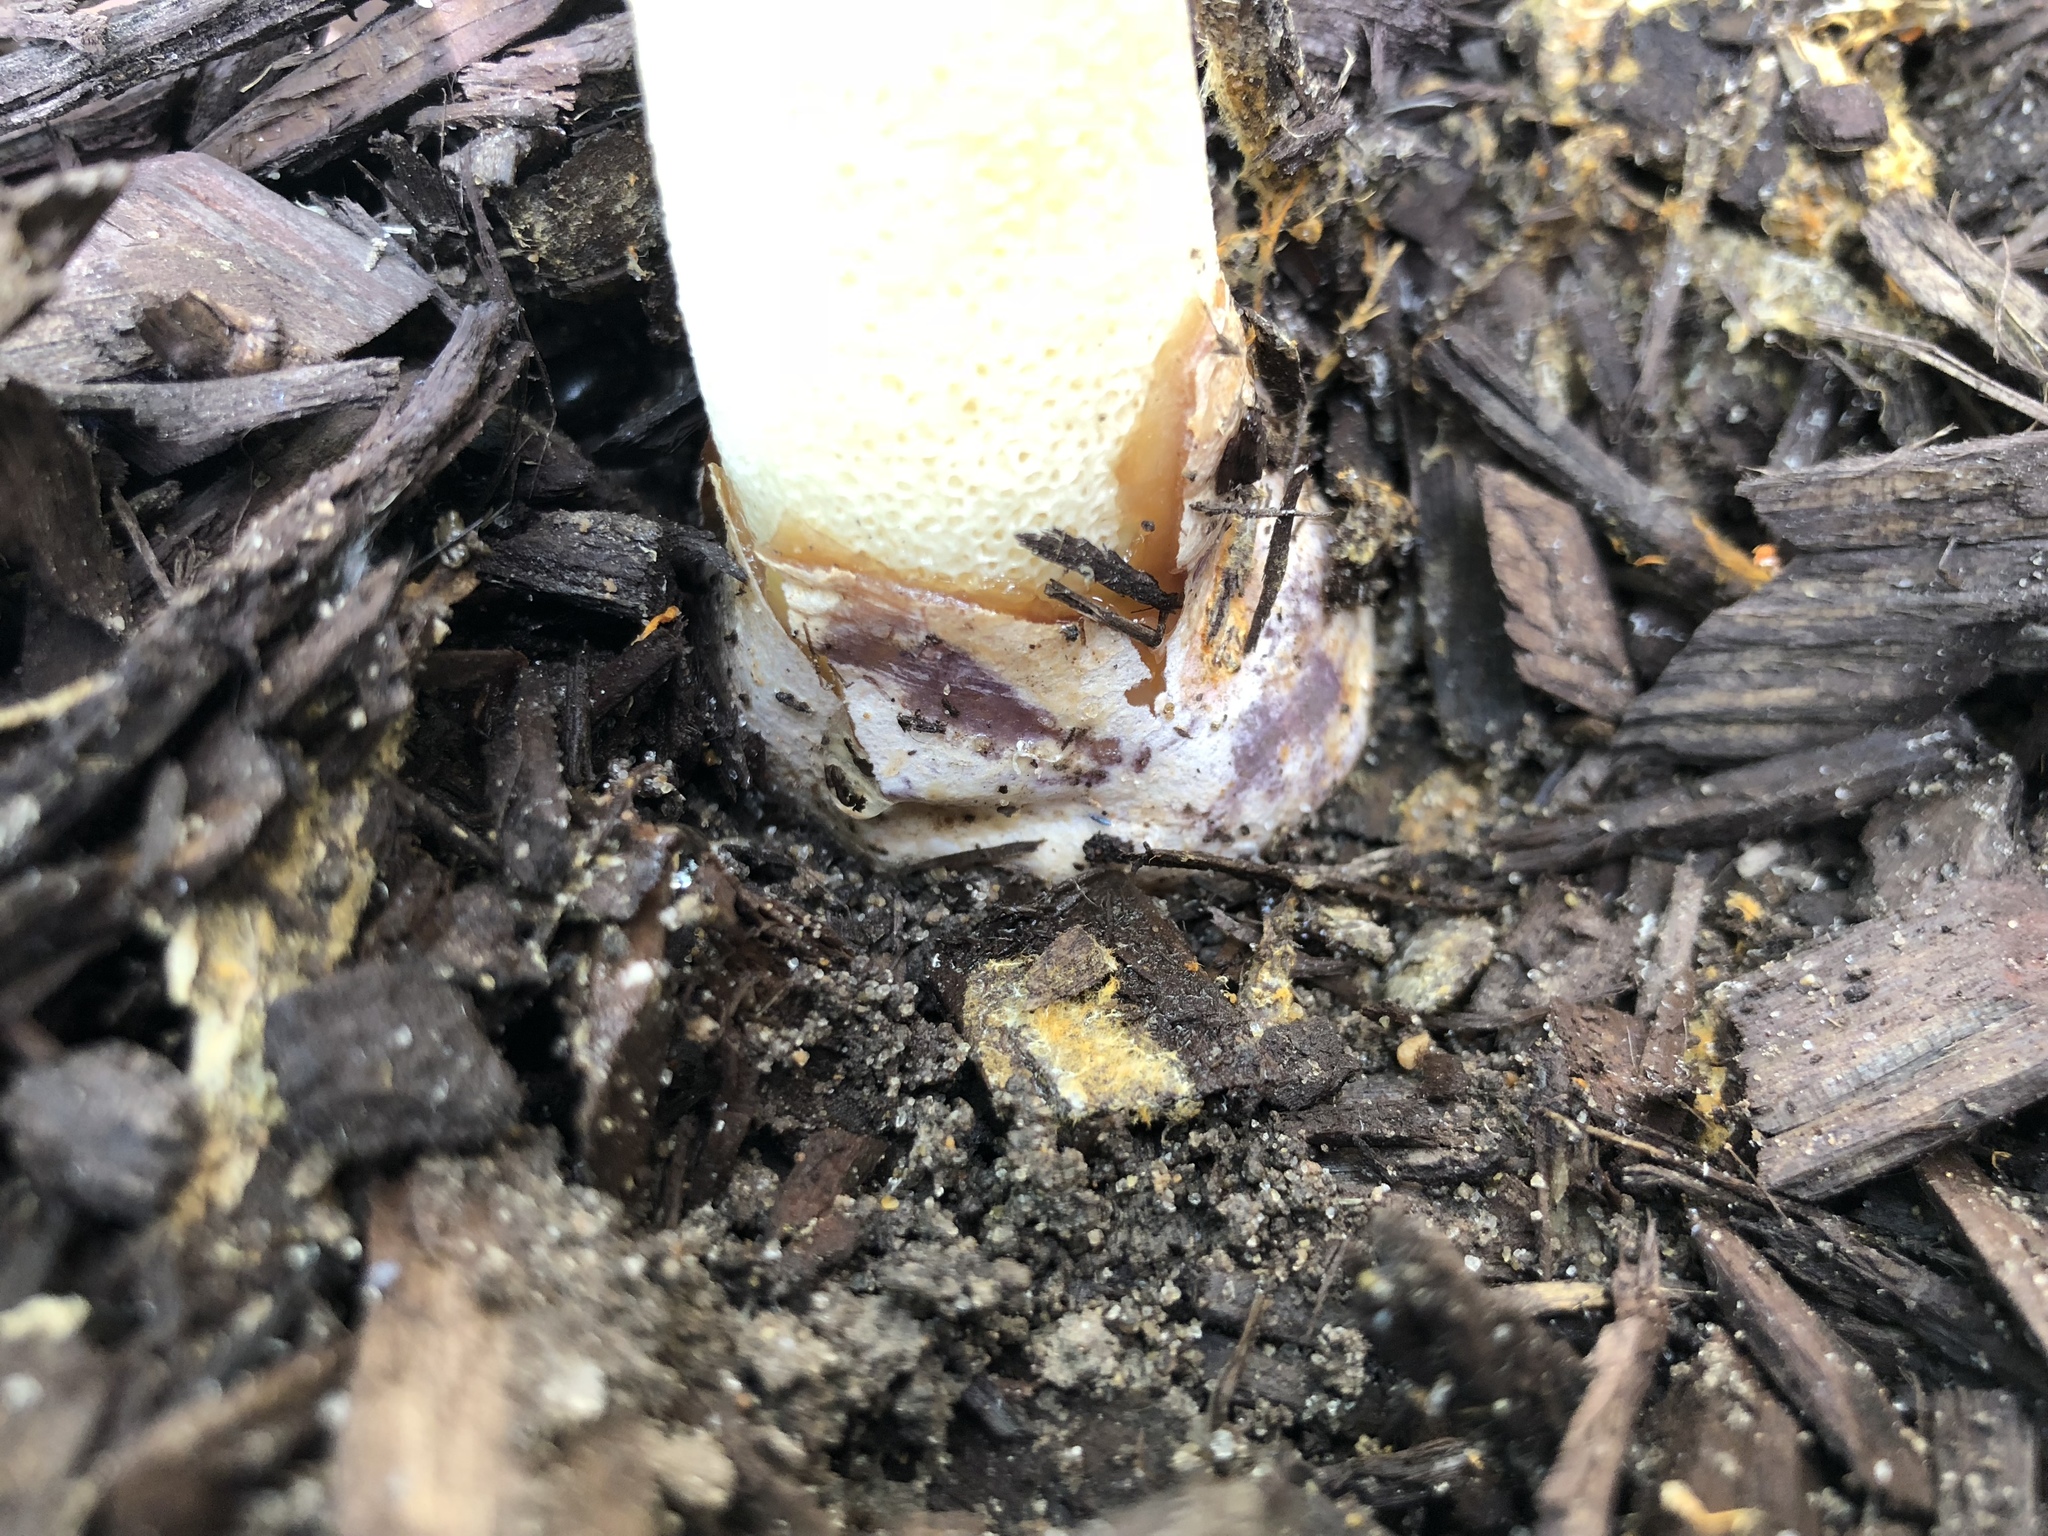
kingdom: Fungi
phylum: Basidiomycota
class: Agaricomycetes
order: Phallales
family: Phallaceae
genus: Phallus
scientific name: Phallus ravenelii
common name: Ravenel's stinkhorn
